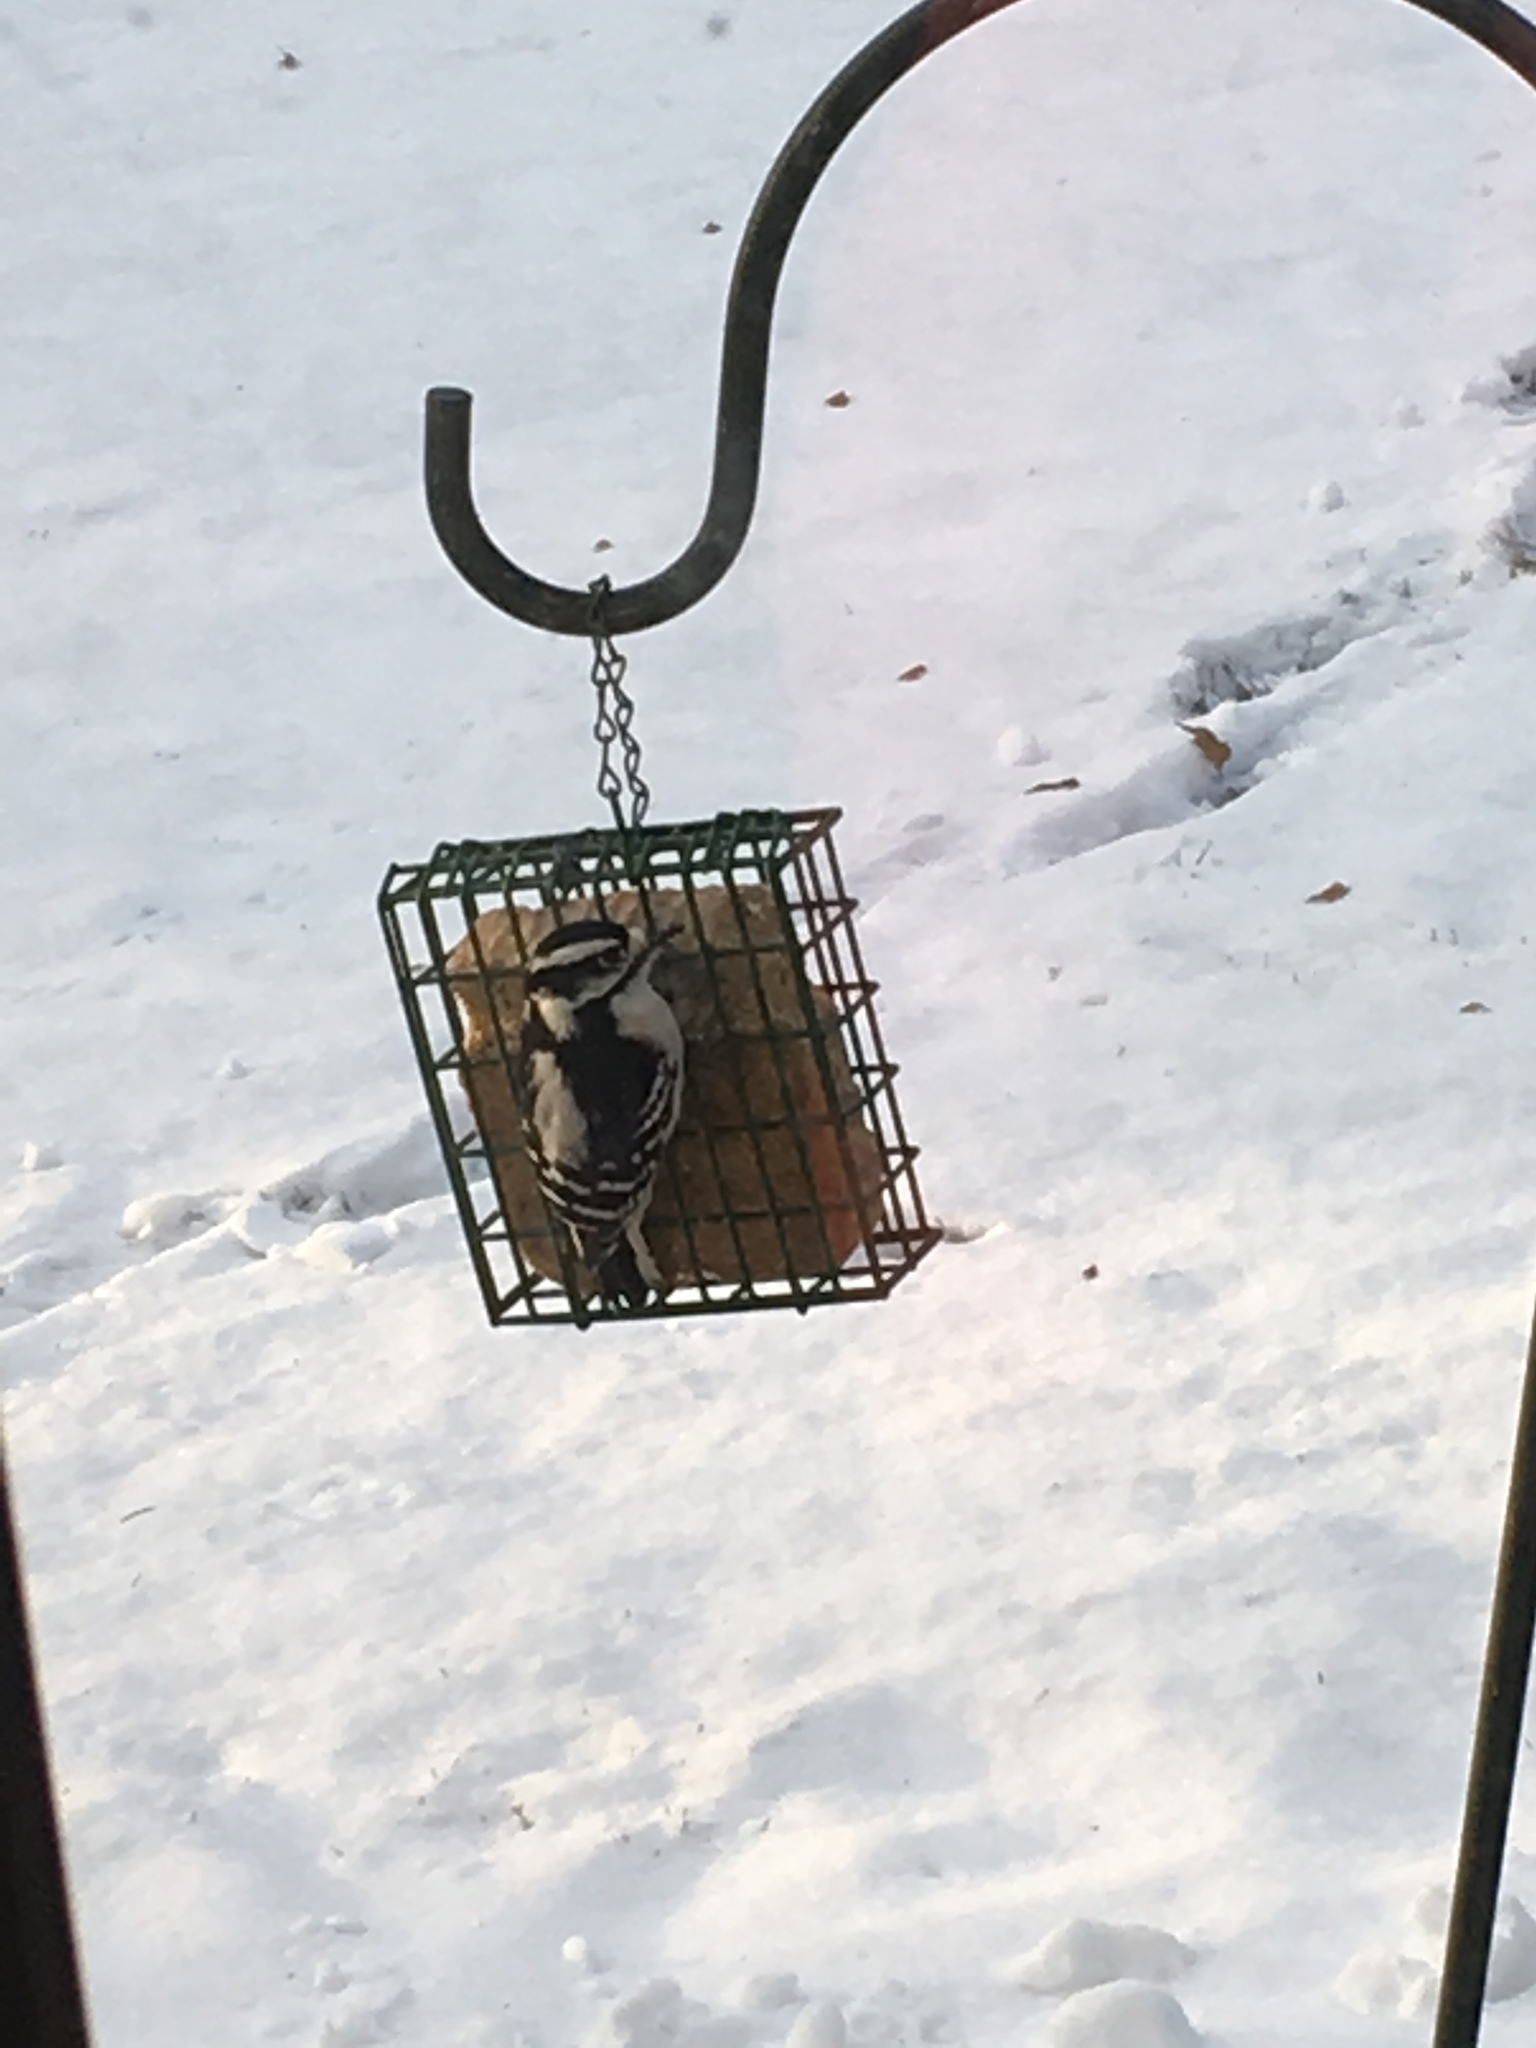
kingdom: Animalia
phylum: Chordata
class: Aves
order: Piciformes
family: Picidae
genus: Dryobates
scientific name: Dryobates pubescens
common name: Downy woodpecker
